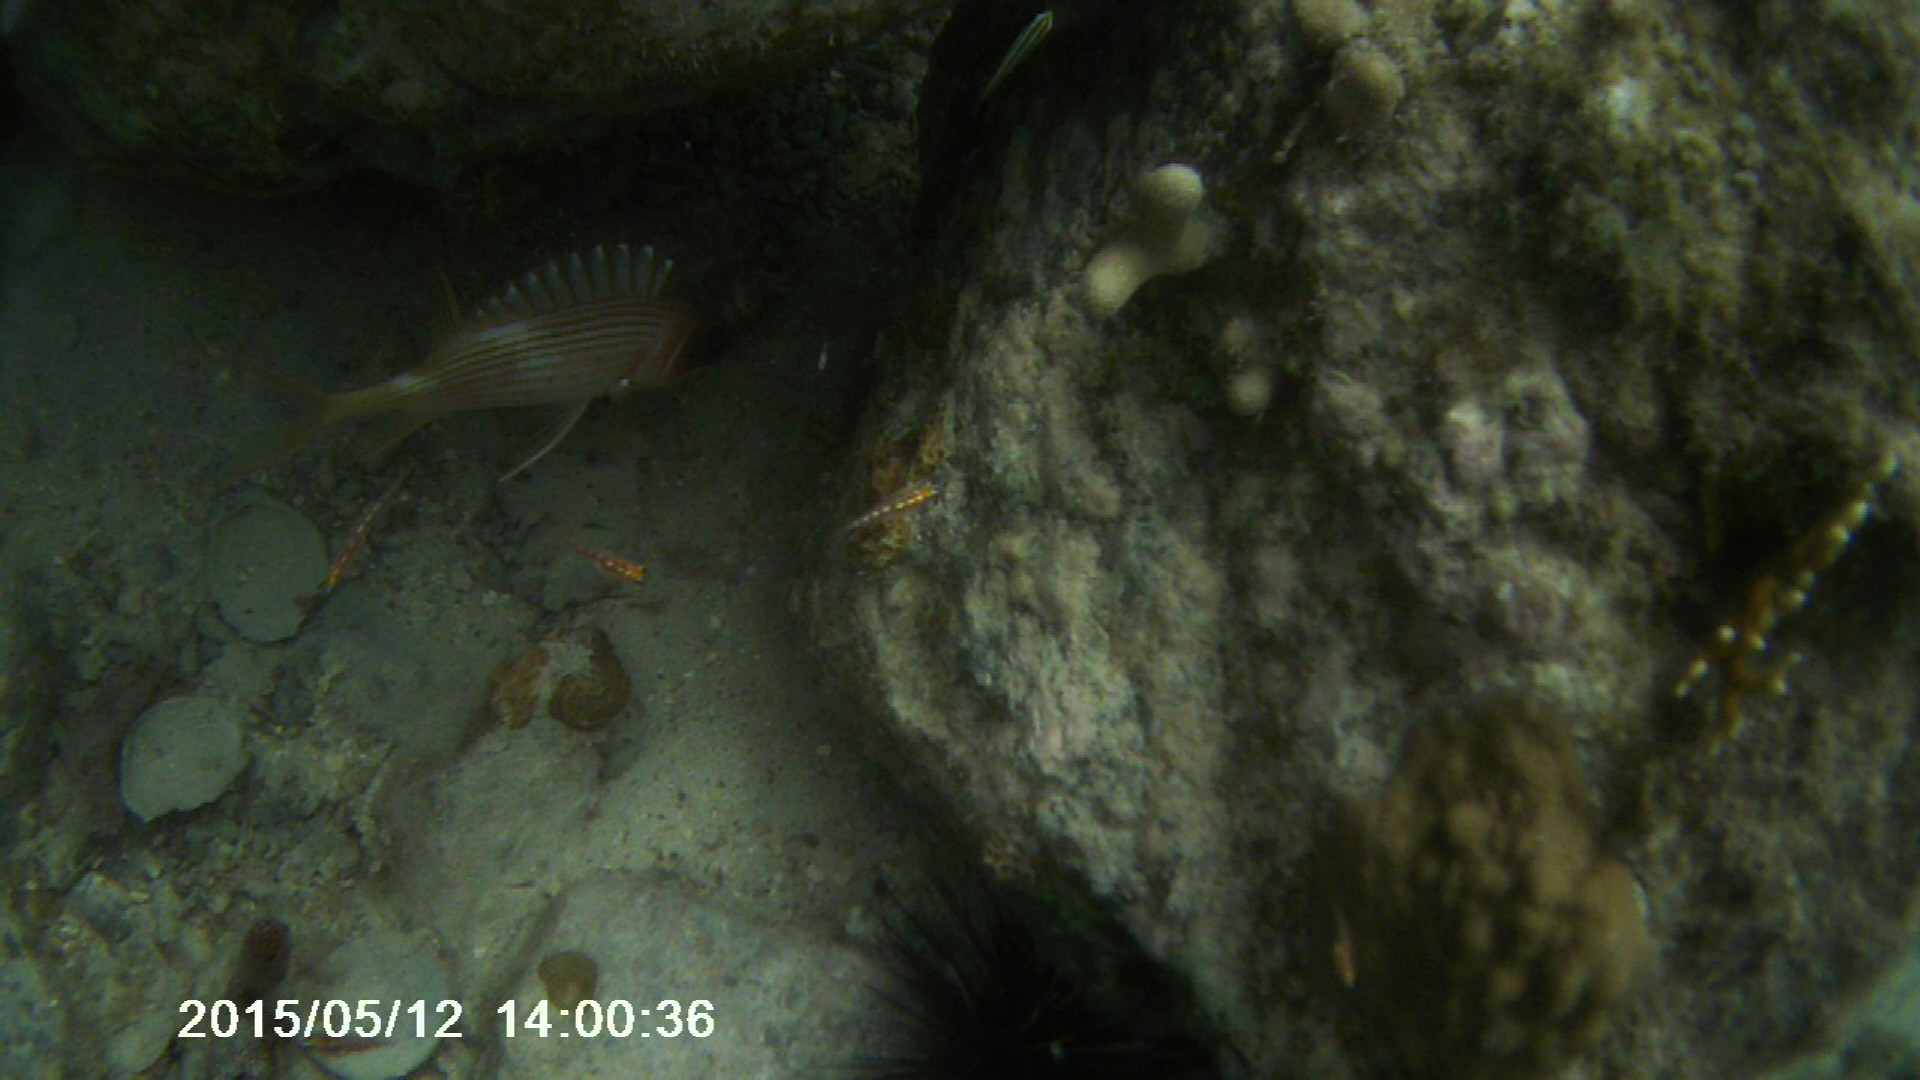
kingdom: Animalia
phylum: Chordata
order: Beryciformes
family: Holocentridae
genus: Holocentrus
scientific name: Holocentrus rufus
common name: Longspine squirrelfish
